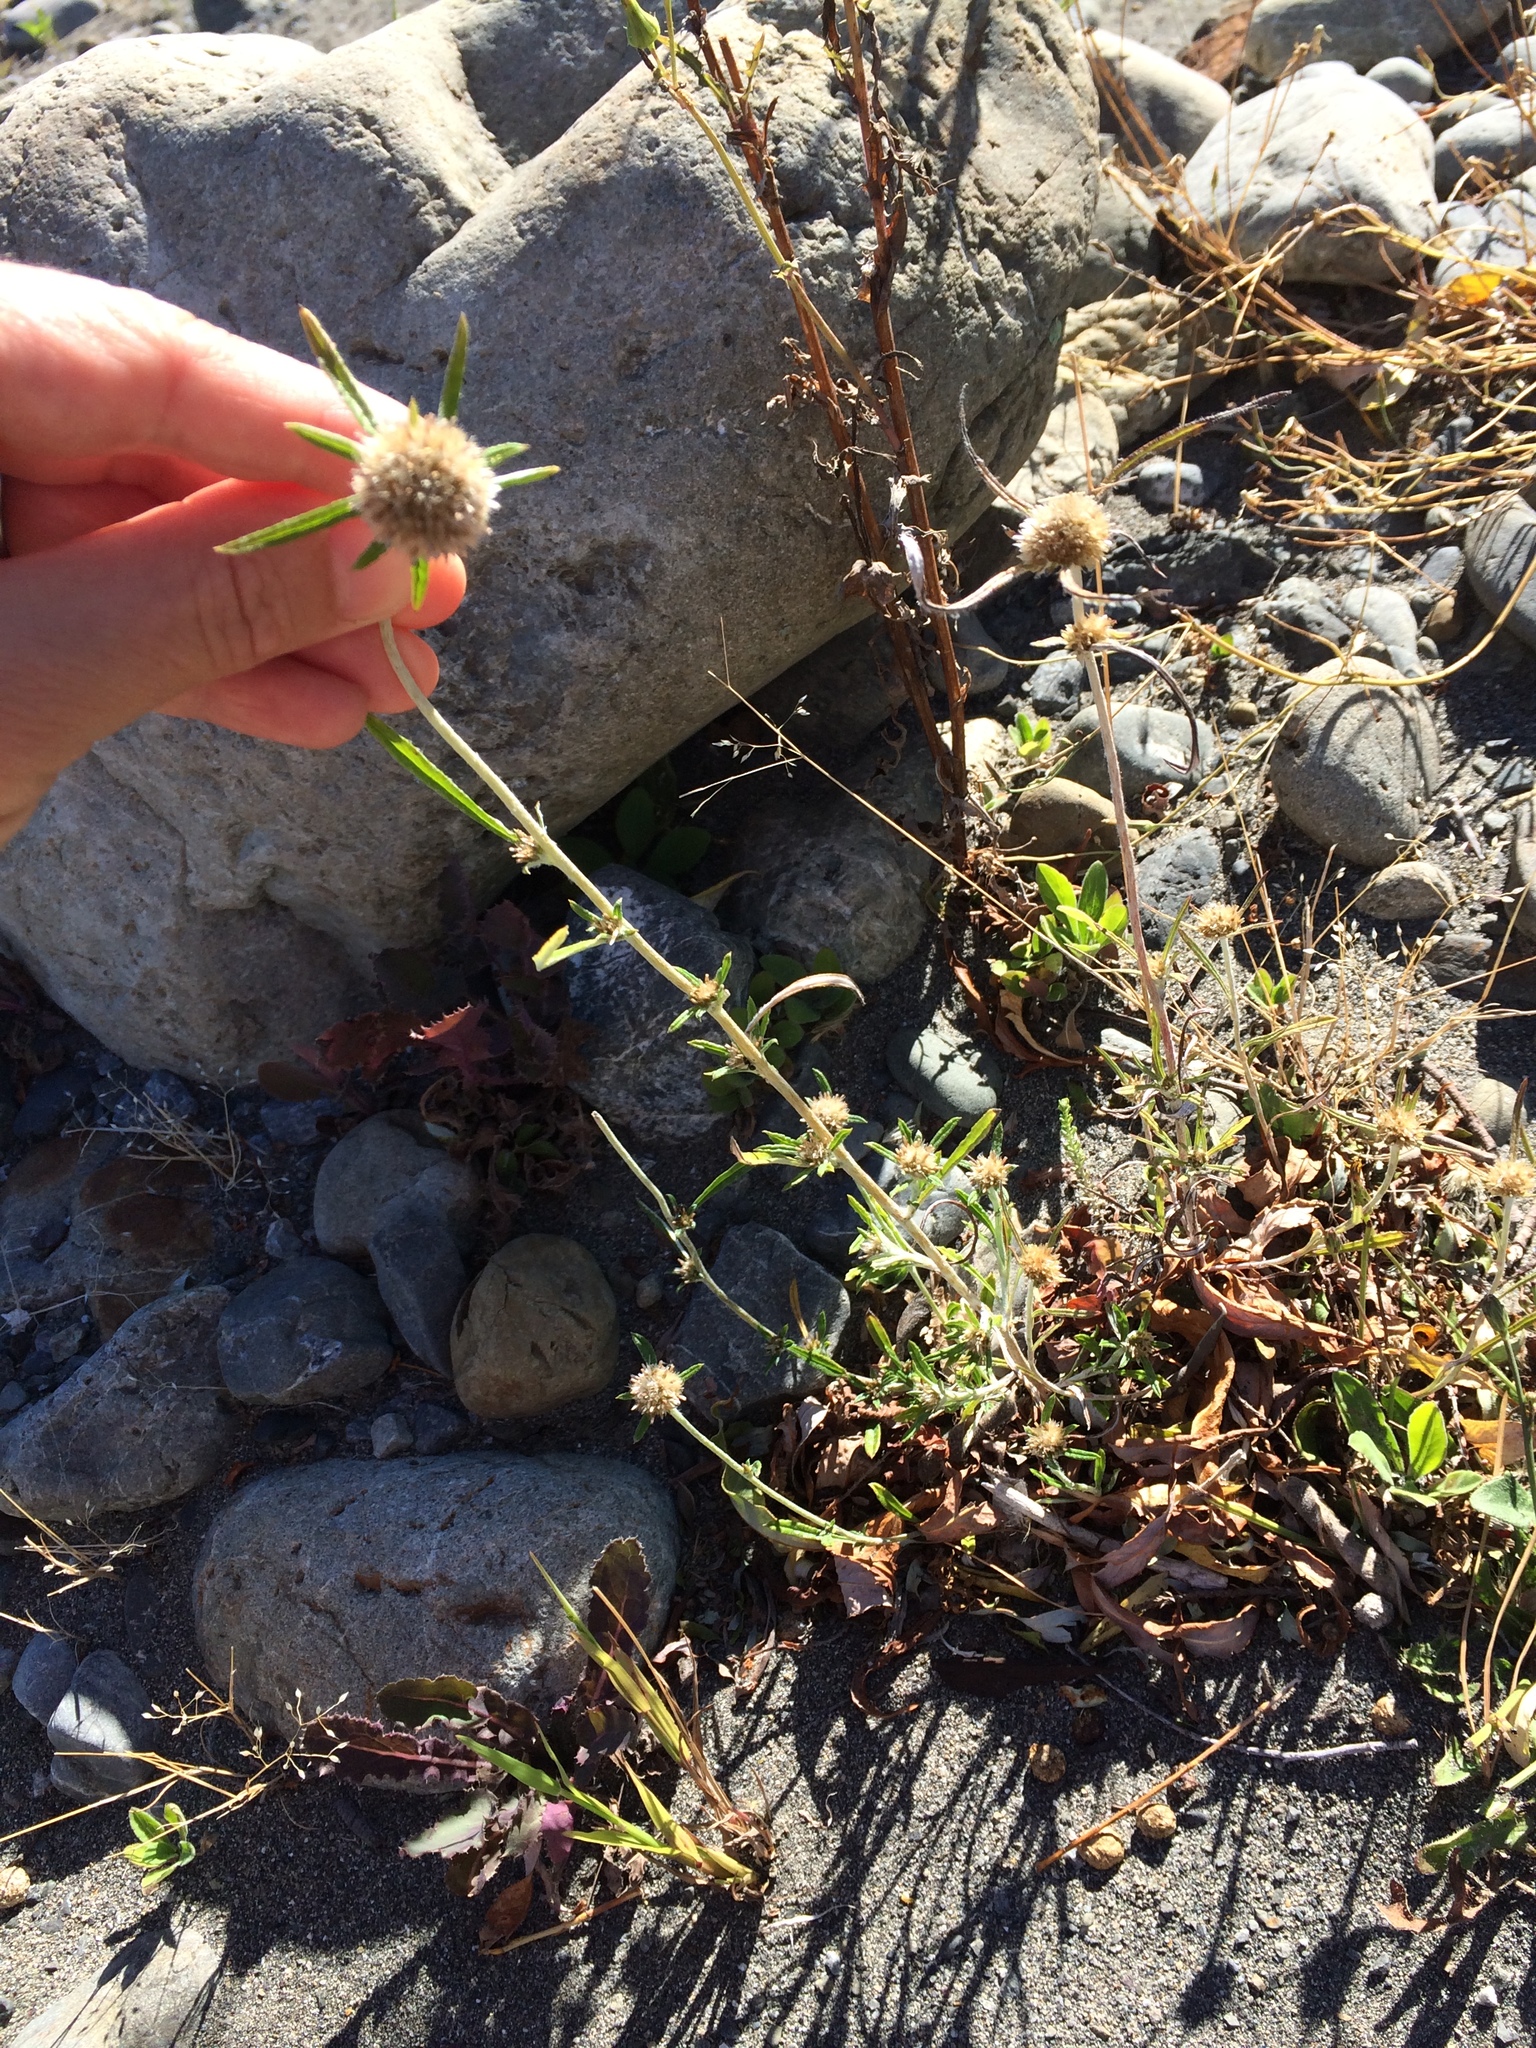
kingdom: Plantae
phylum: Tracheophyta
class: Magnoliopsida
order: Asterales
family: Asteraceae
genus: Euchiton
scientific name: Euchiton sphaericus
